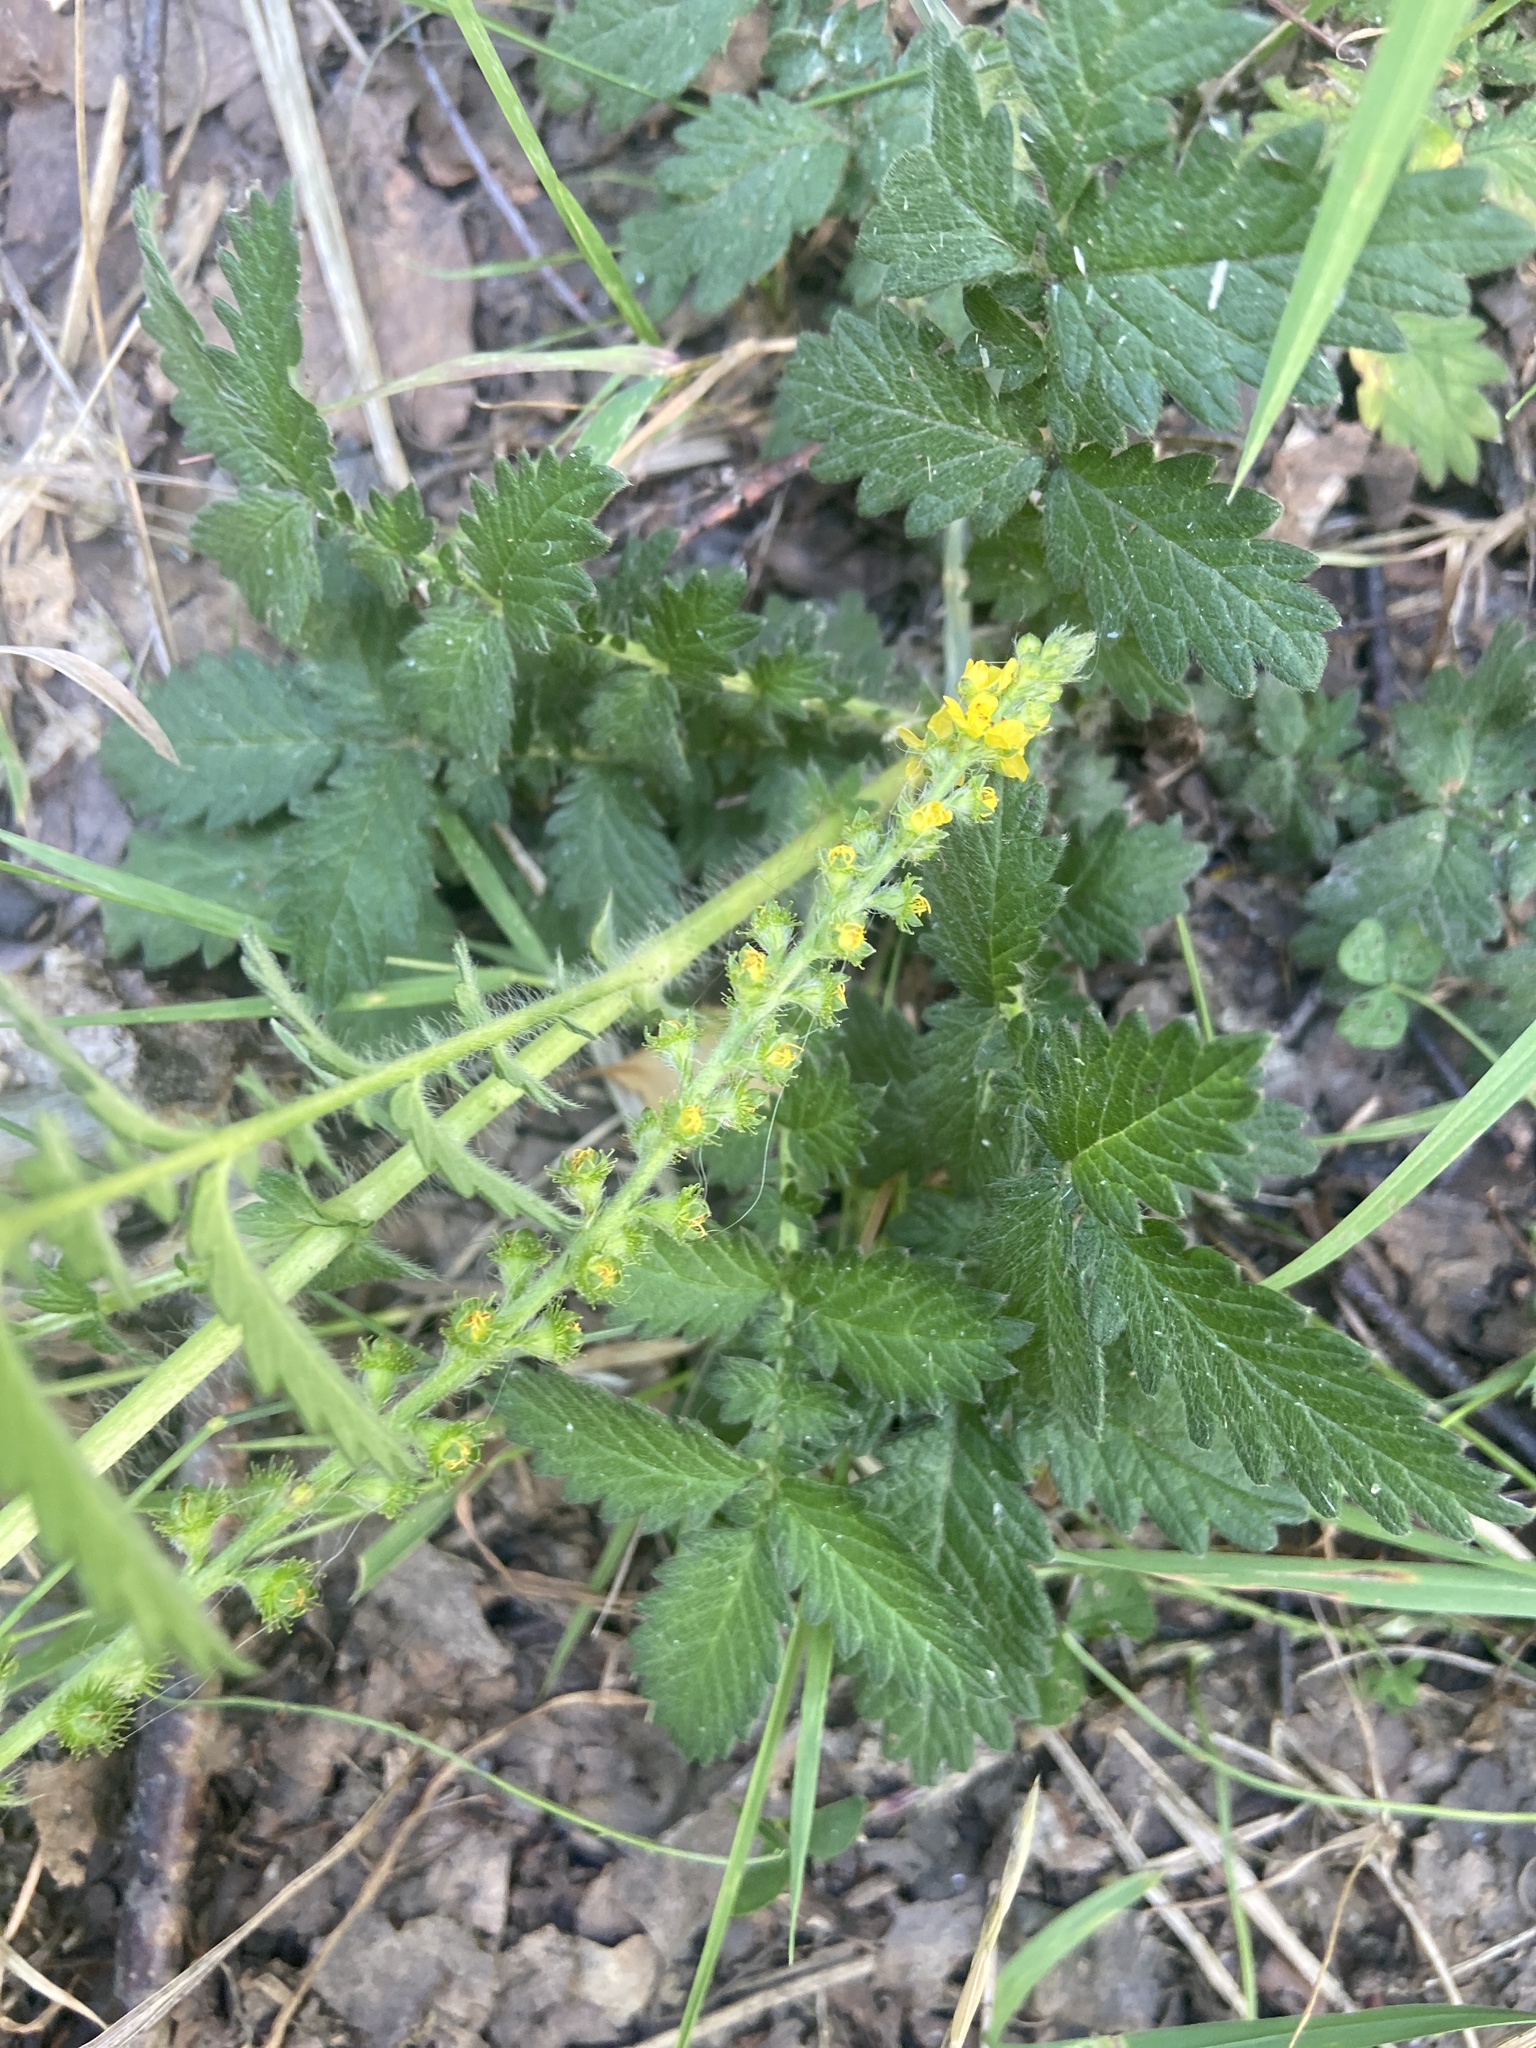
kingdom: Plantae
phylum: Tracheophyta
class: Magnoliopsida
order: Rosales
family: Rosaceae
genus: Agrimonia
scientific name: Agrimonia eupatoria
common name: Agrimony
